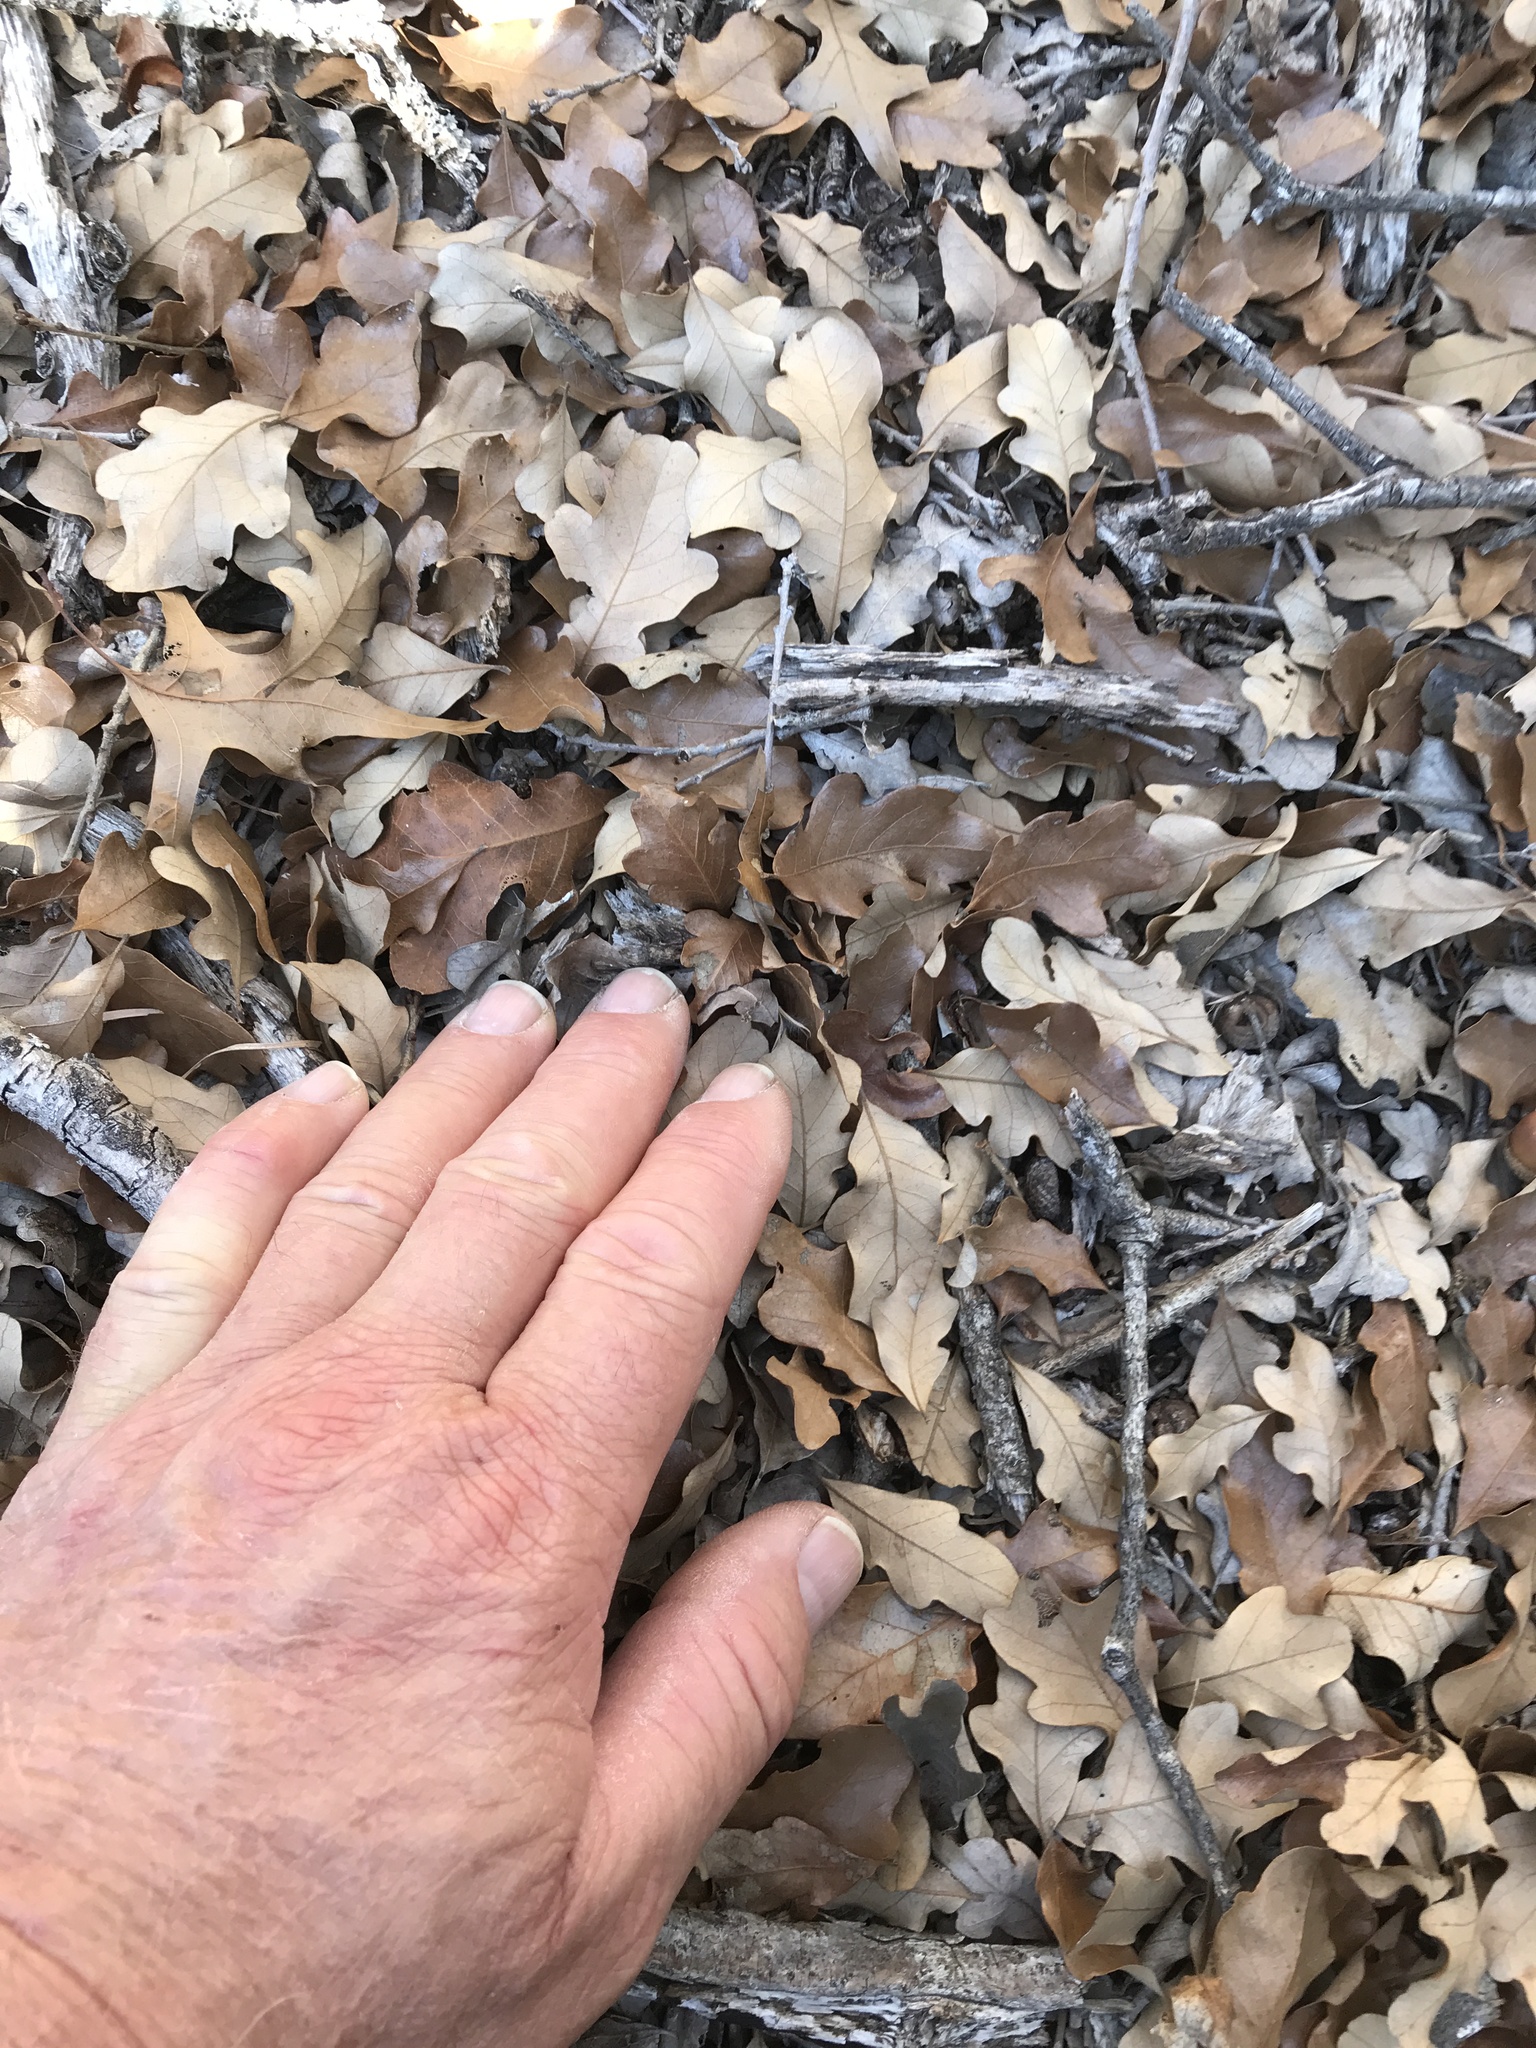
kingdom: Plantae
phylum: Tracheophyta
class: Magnoliopsida
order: Fagales
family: Fagaceae
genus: Quercus
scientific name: Quercus sinuata
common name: Durand oak
